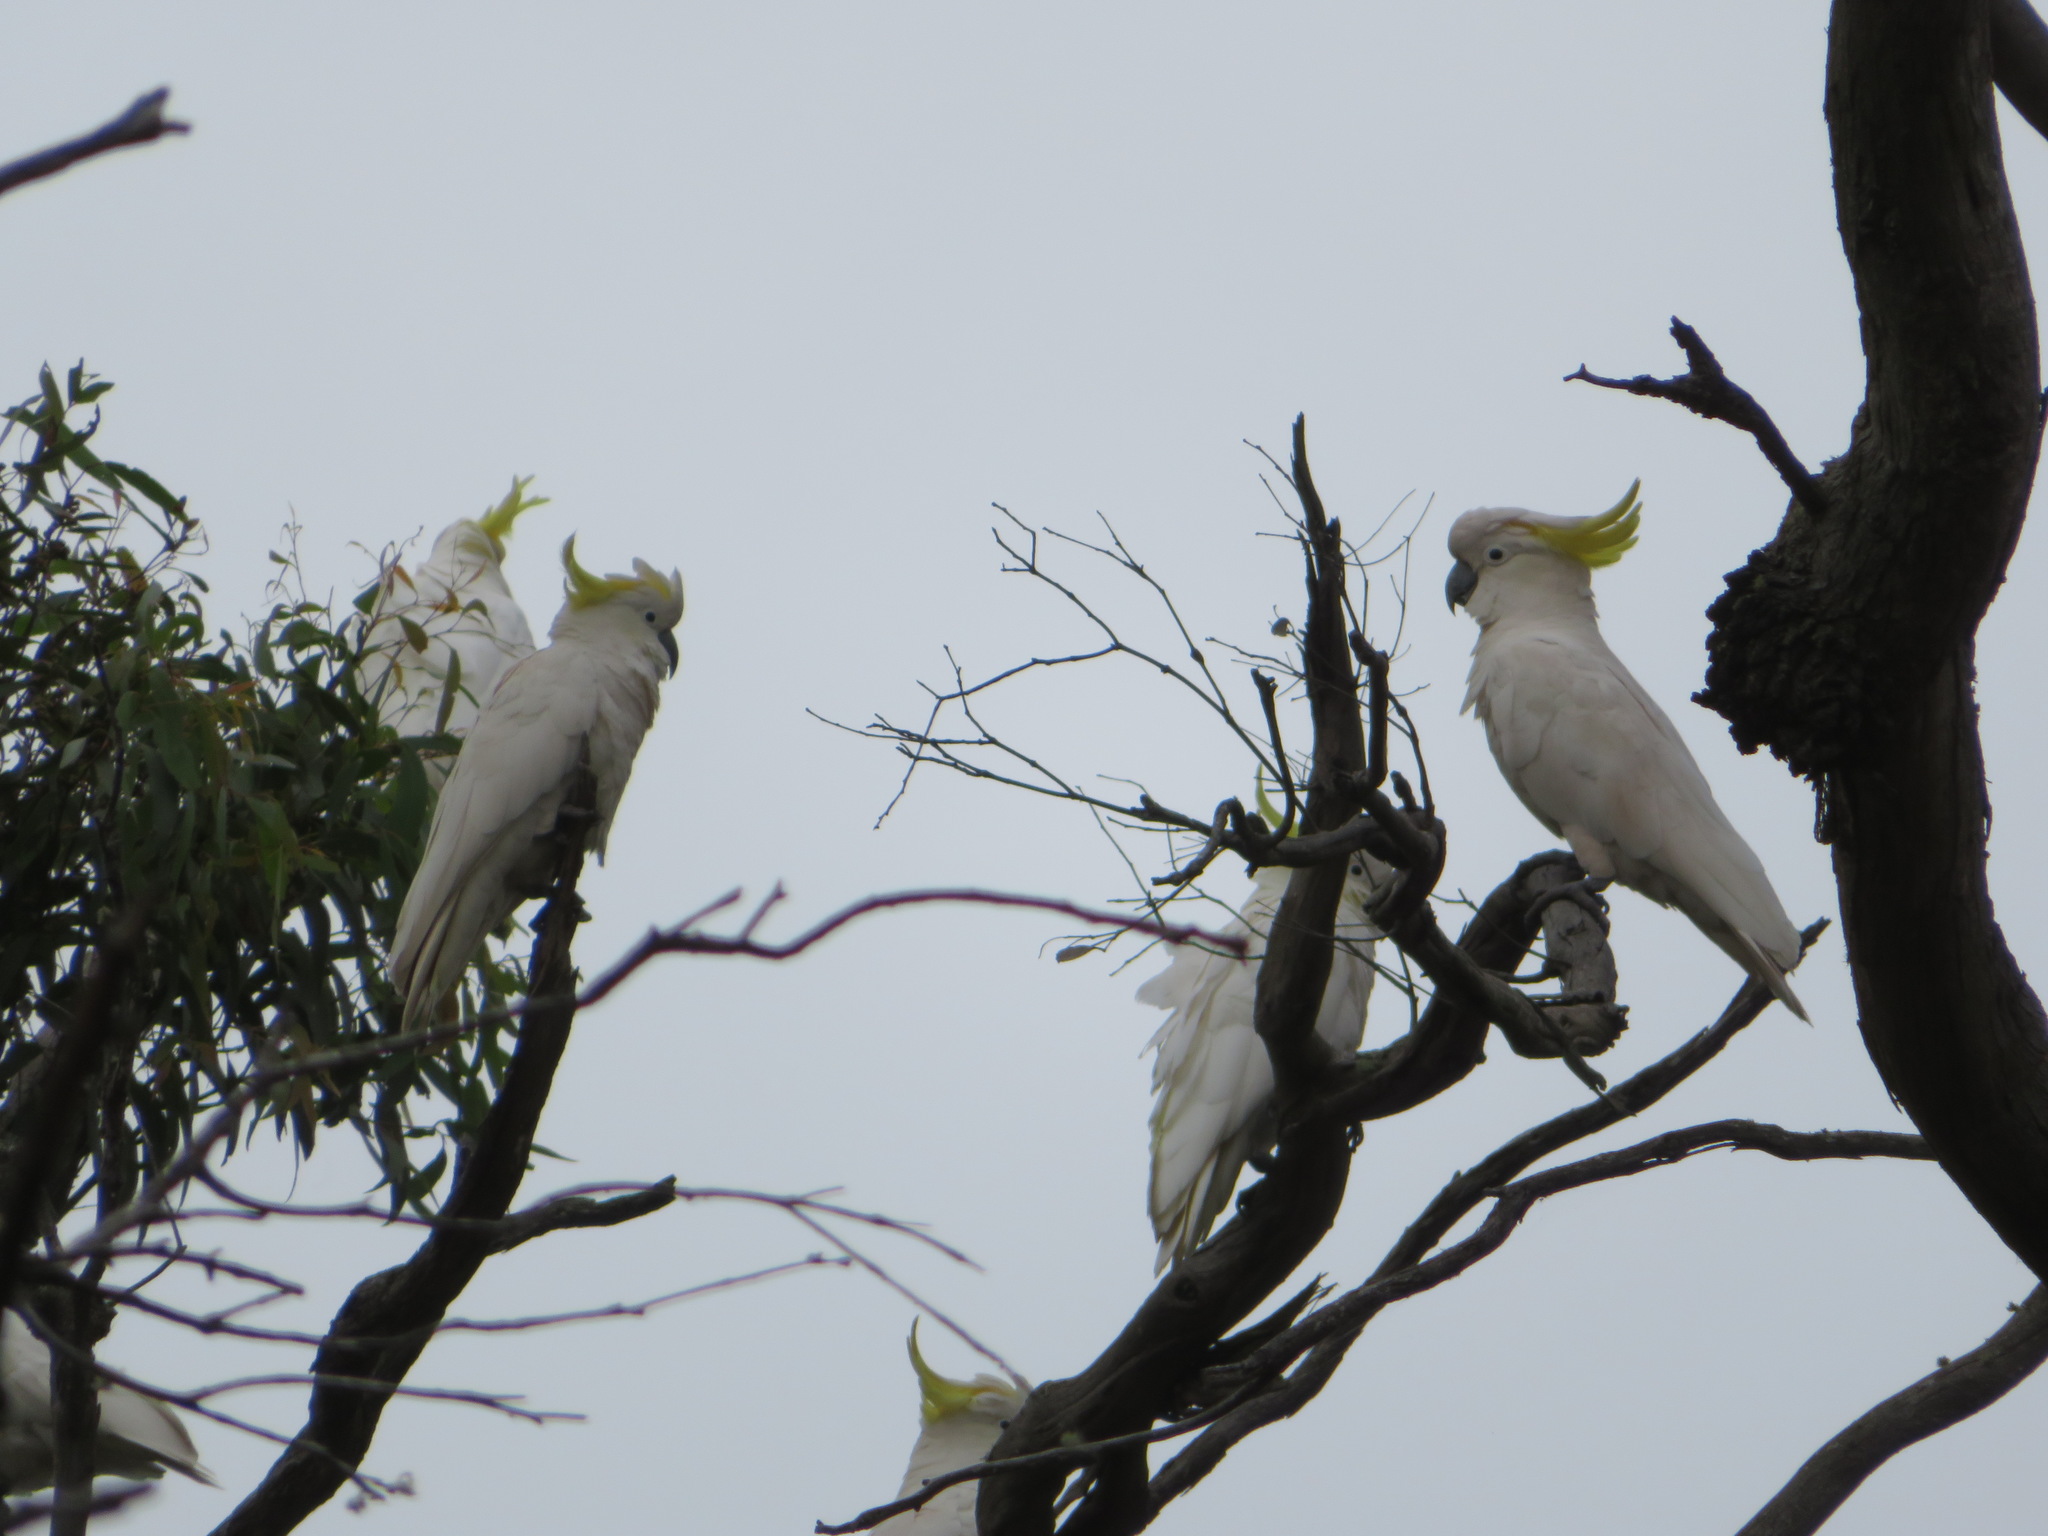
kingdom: Animalia
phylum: Chordata
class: Aves
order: Psittaciformes
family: Psittacidae
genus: Cacatua
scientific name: Cacatua galerita
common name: Sulphur-crested cockatoo
